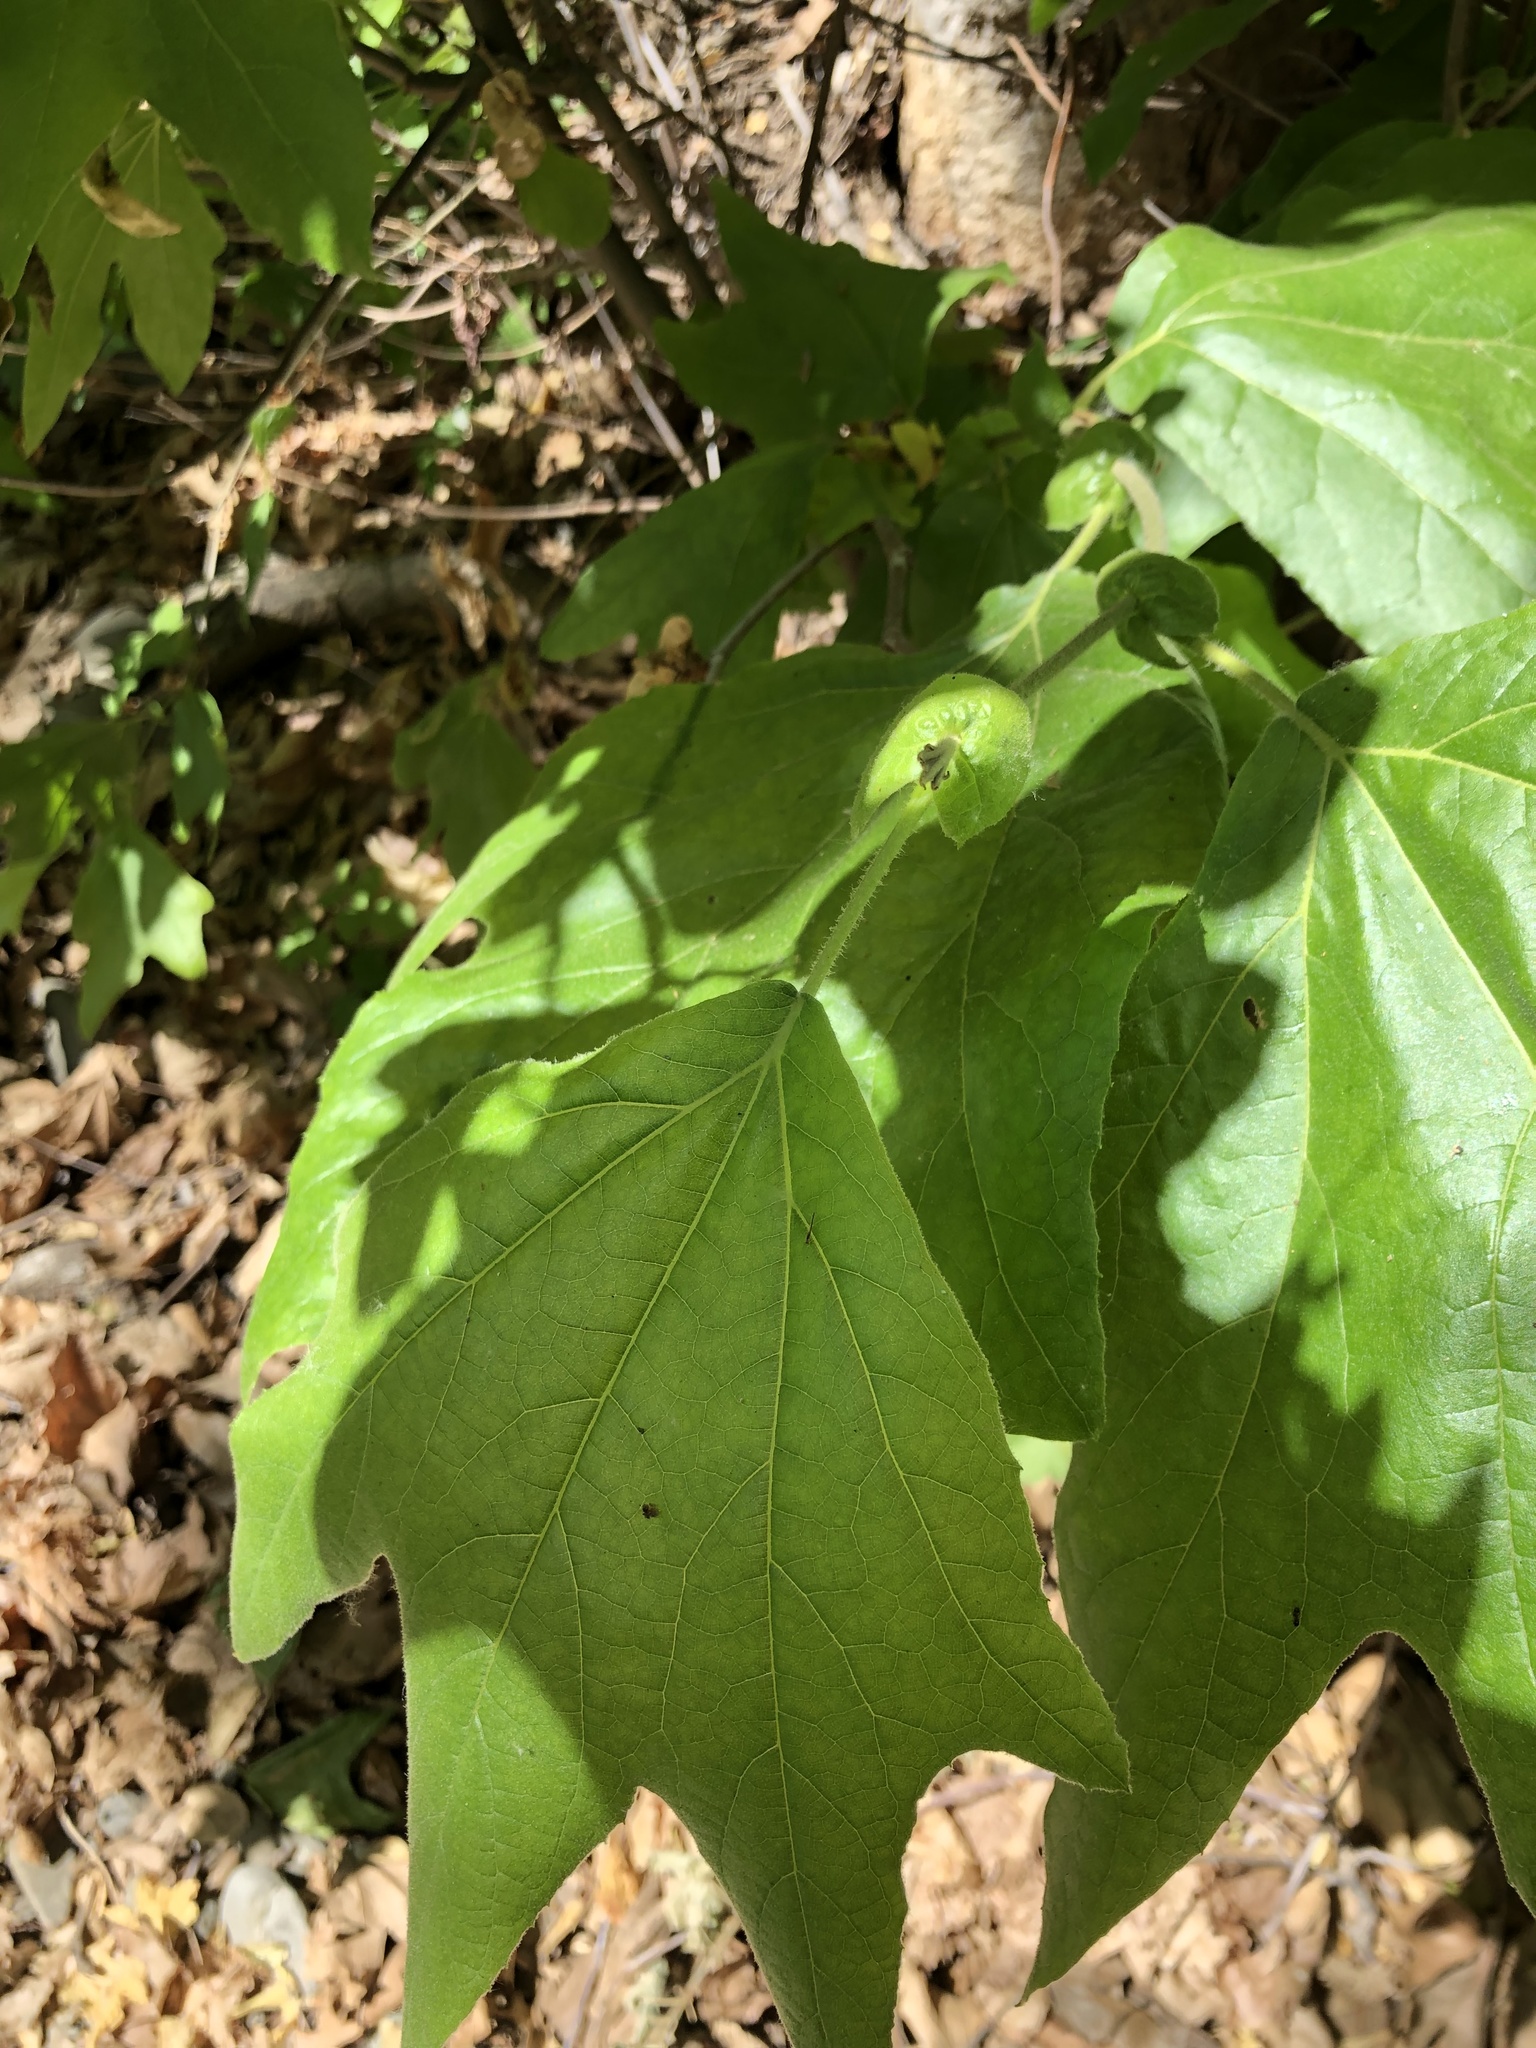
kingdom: Plantae
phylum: Tracheophyta
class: Magnoliopsida
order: Proteales
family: Platanaceae
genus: Platanus
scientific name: Platanus racemosa
